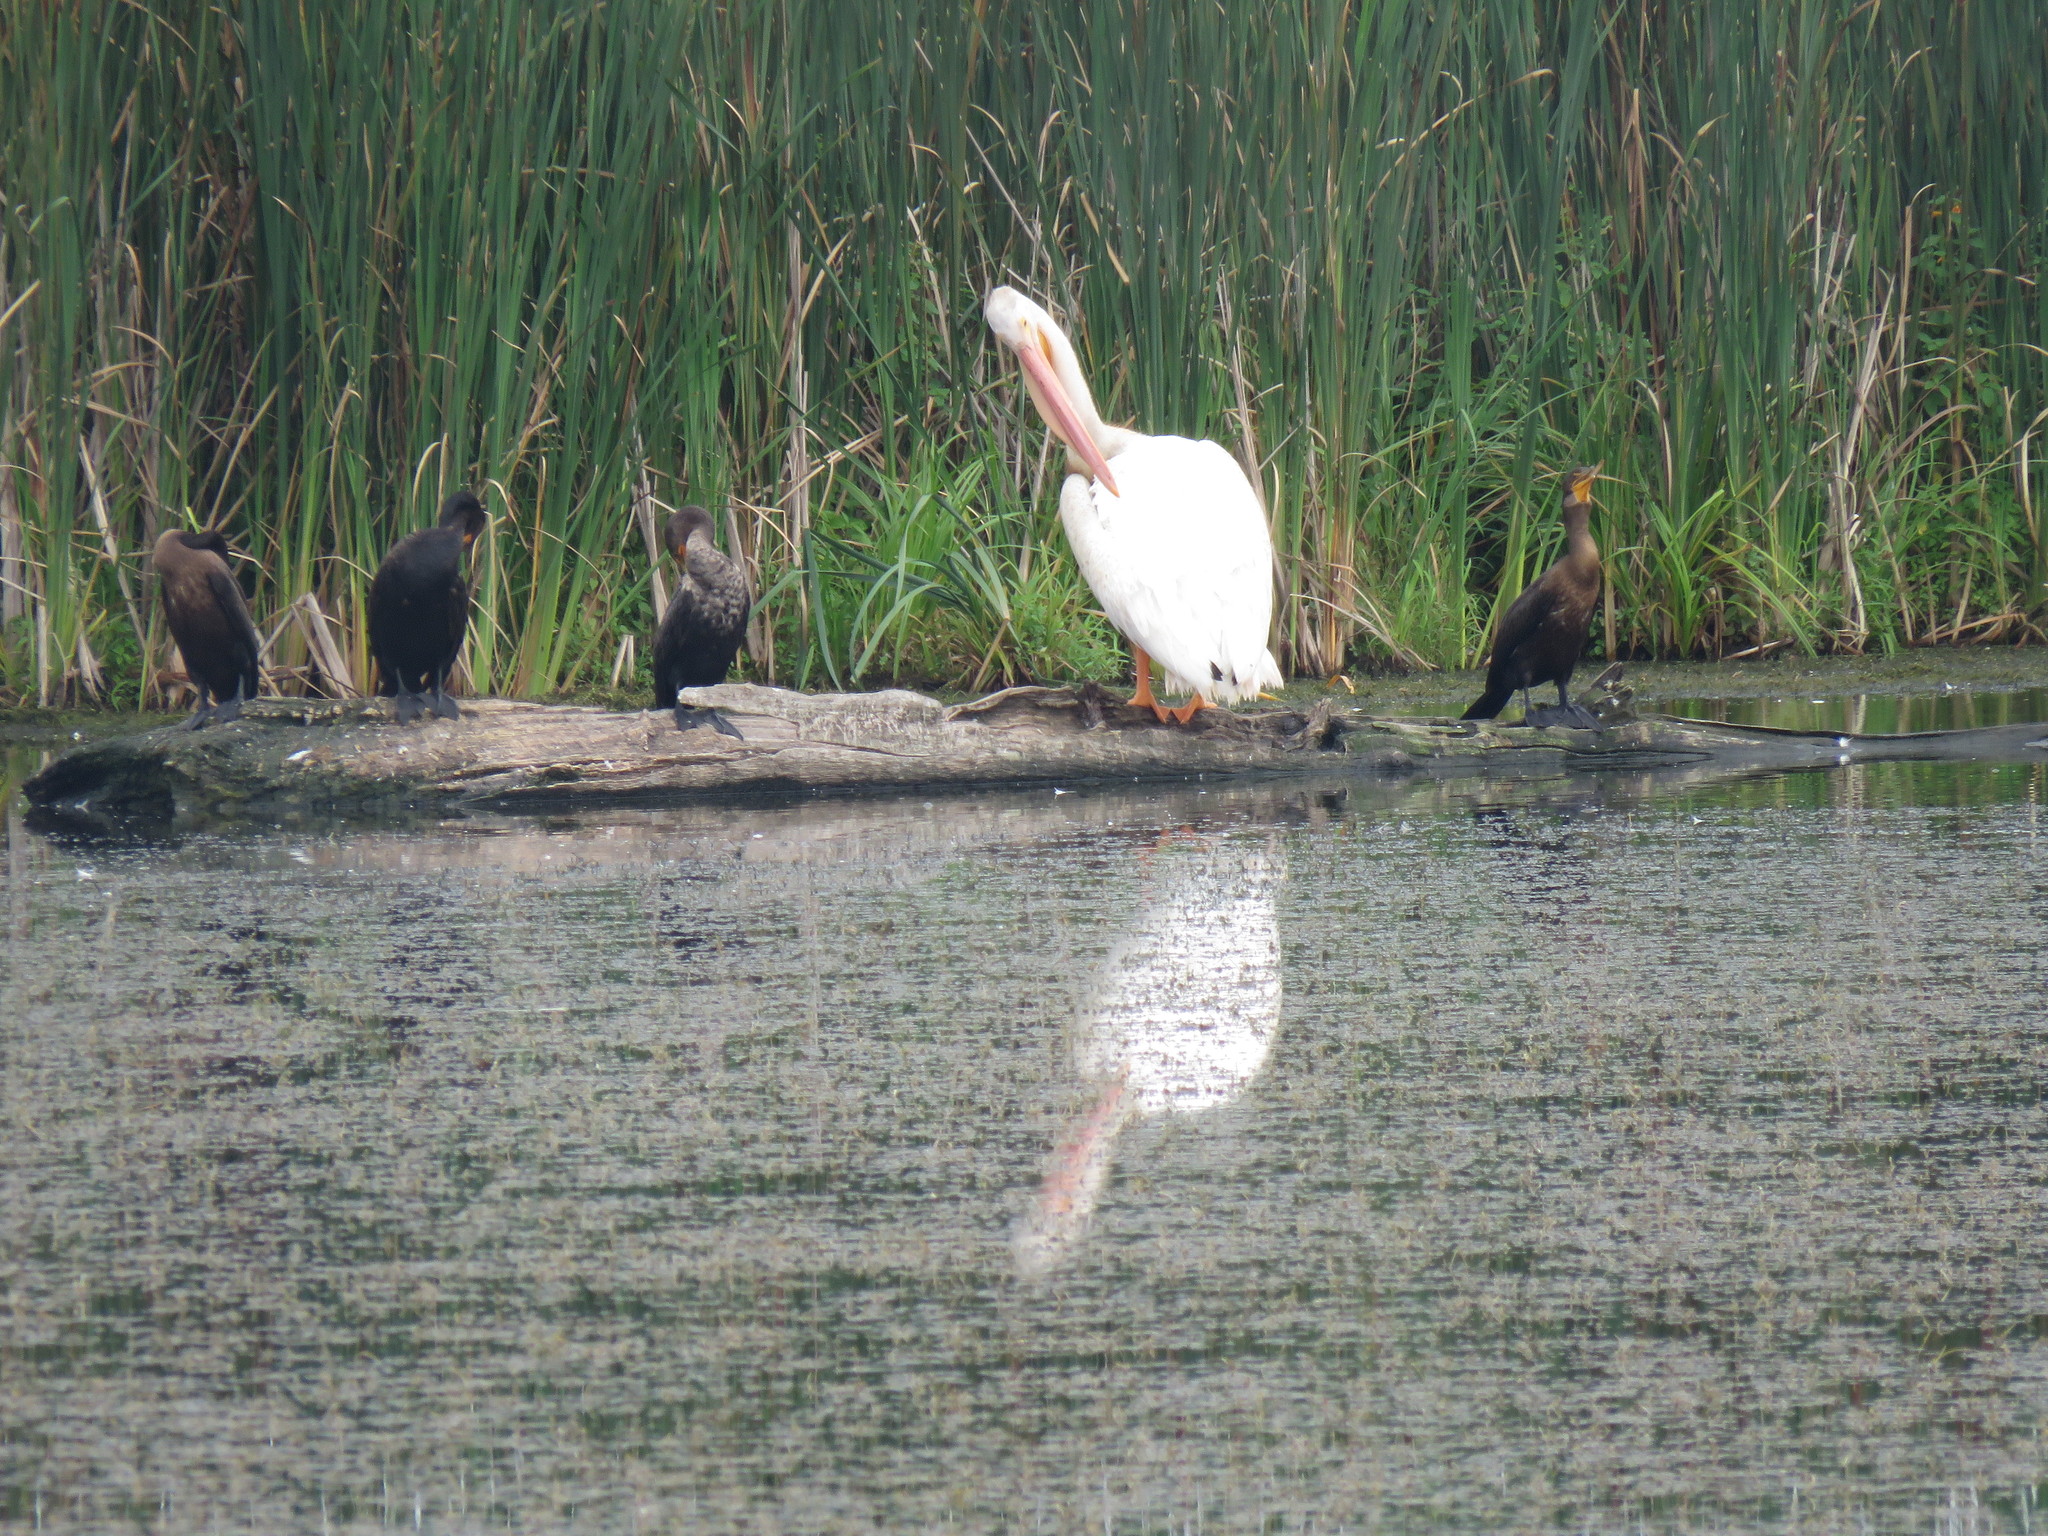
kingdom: Animalia
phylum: Chordata
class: Aves
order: Pelecaniformes
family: Pelecanidae
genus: Pelecanus
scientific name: Pelecanus erythrorhynchos
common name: American white pelican
